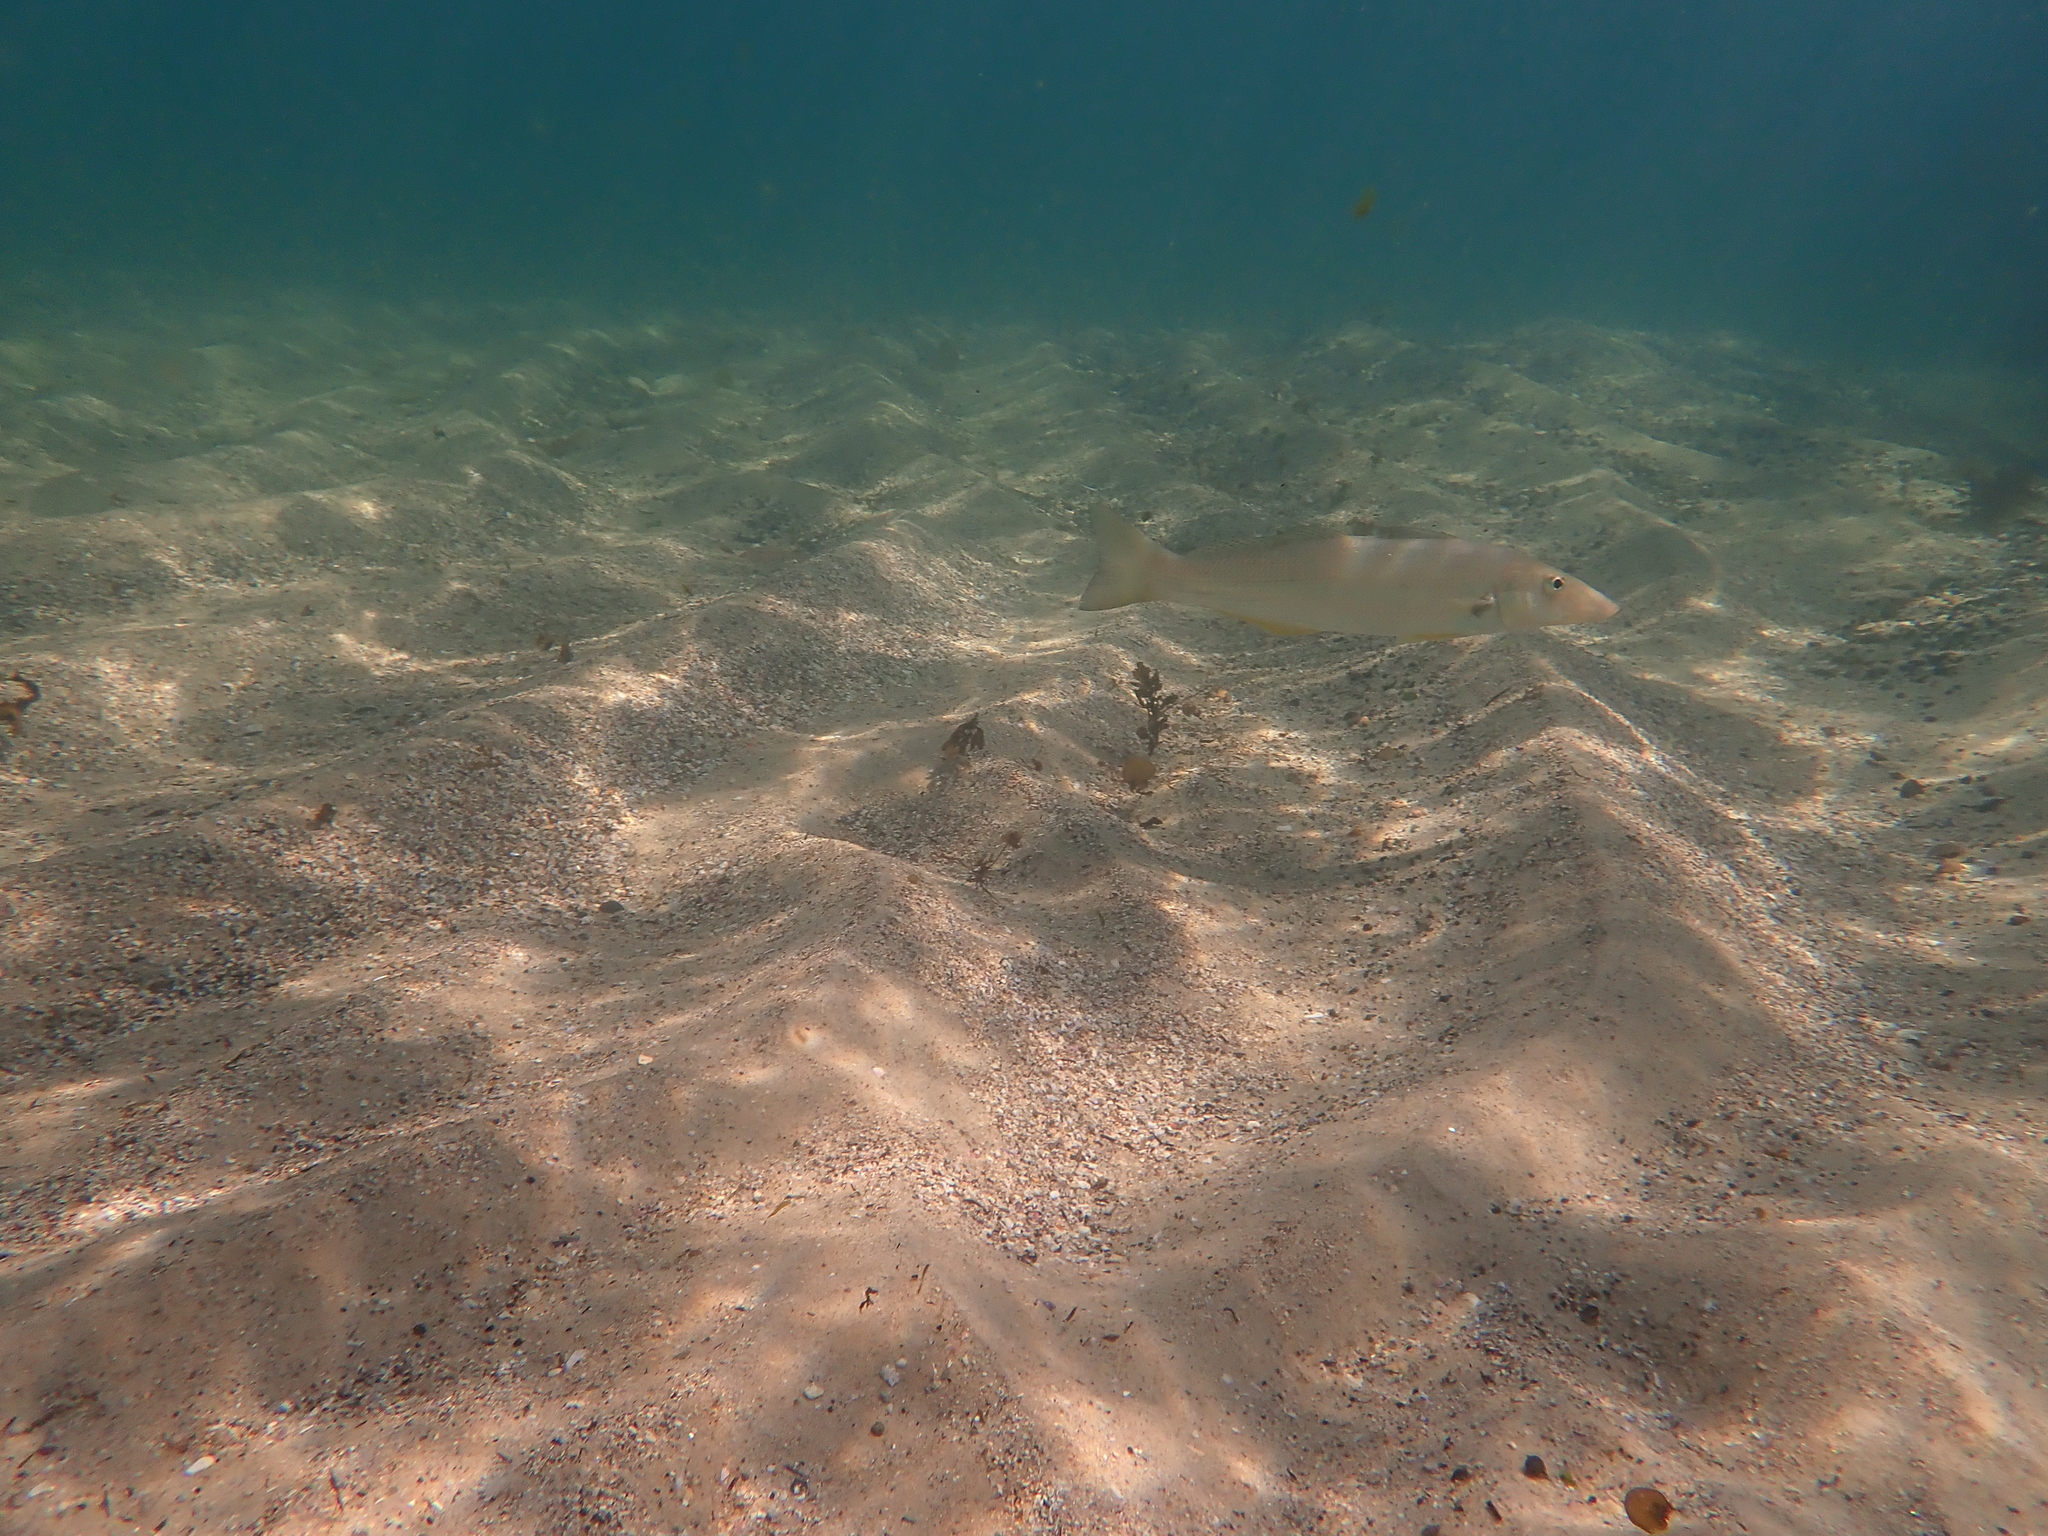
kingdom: Animalia
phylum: Chordata
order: Perciformes
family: Sillaginidae
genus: Sillago
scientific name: Sillago ciliata
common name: Sand sillago
